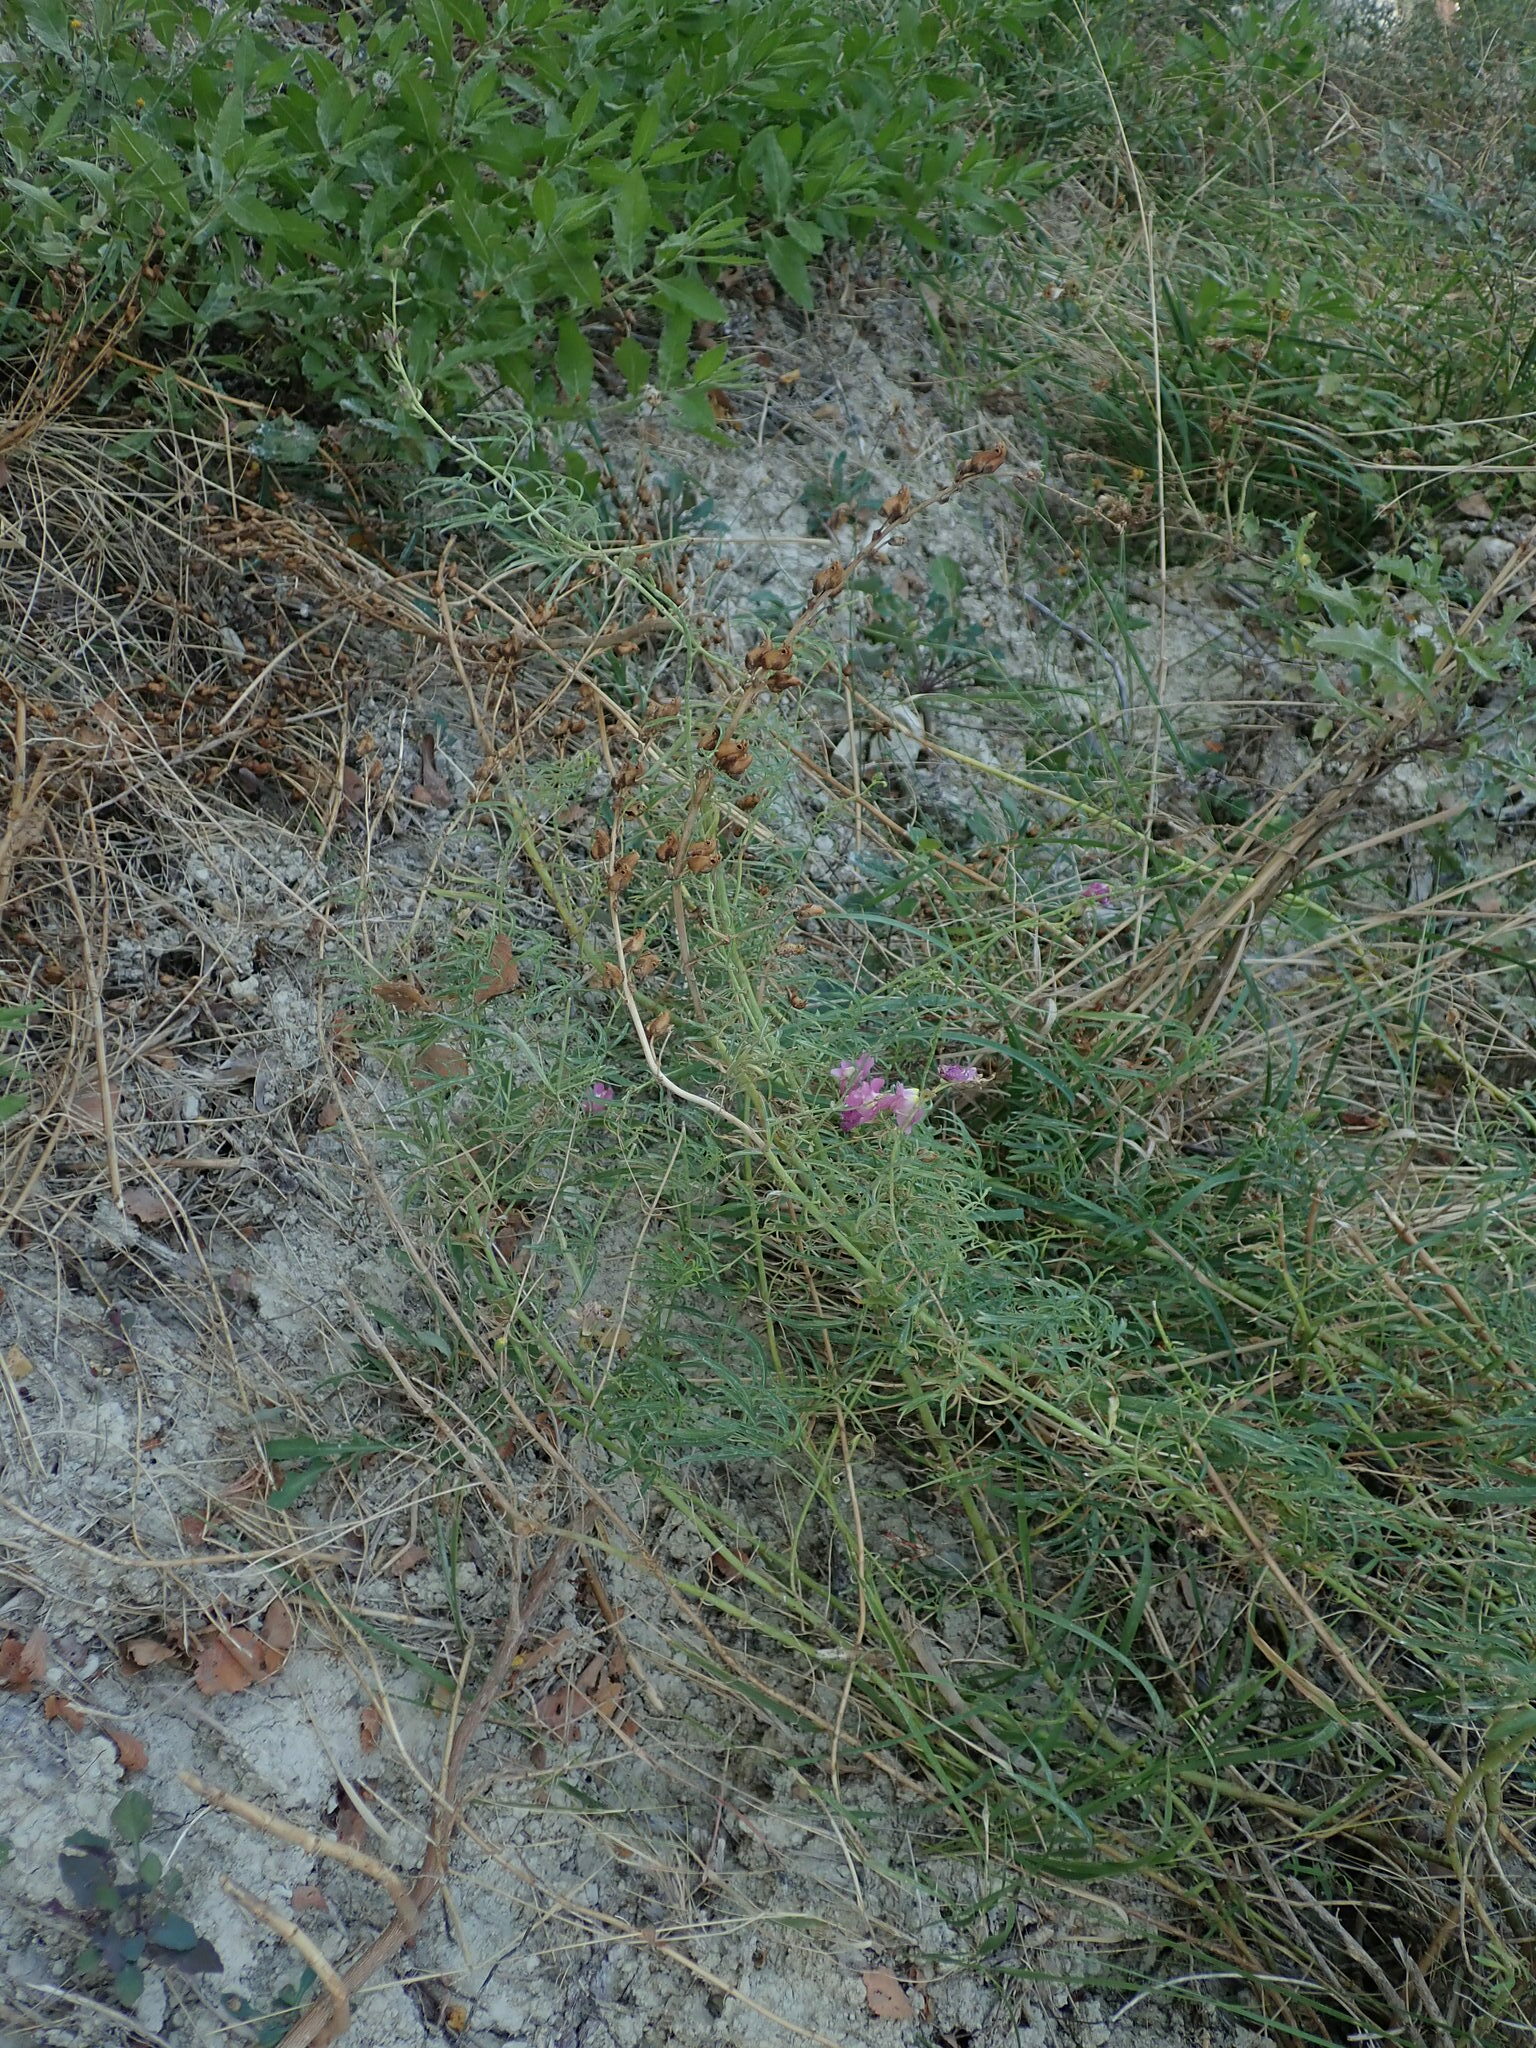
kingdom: Plantae
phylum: Tracheophyta
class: Magnoliopsida
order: Lamiales
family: Plantaginaceae
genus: Antirrhinum
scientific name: Antirrhinum tortuosum
